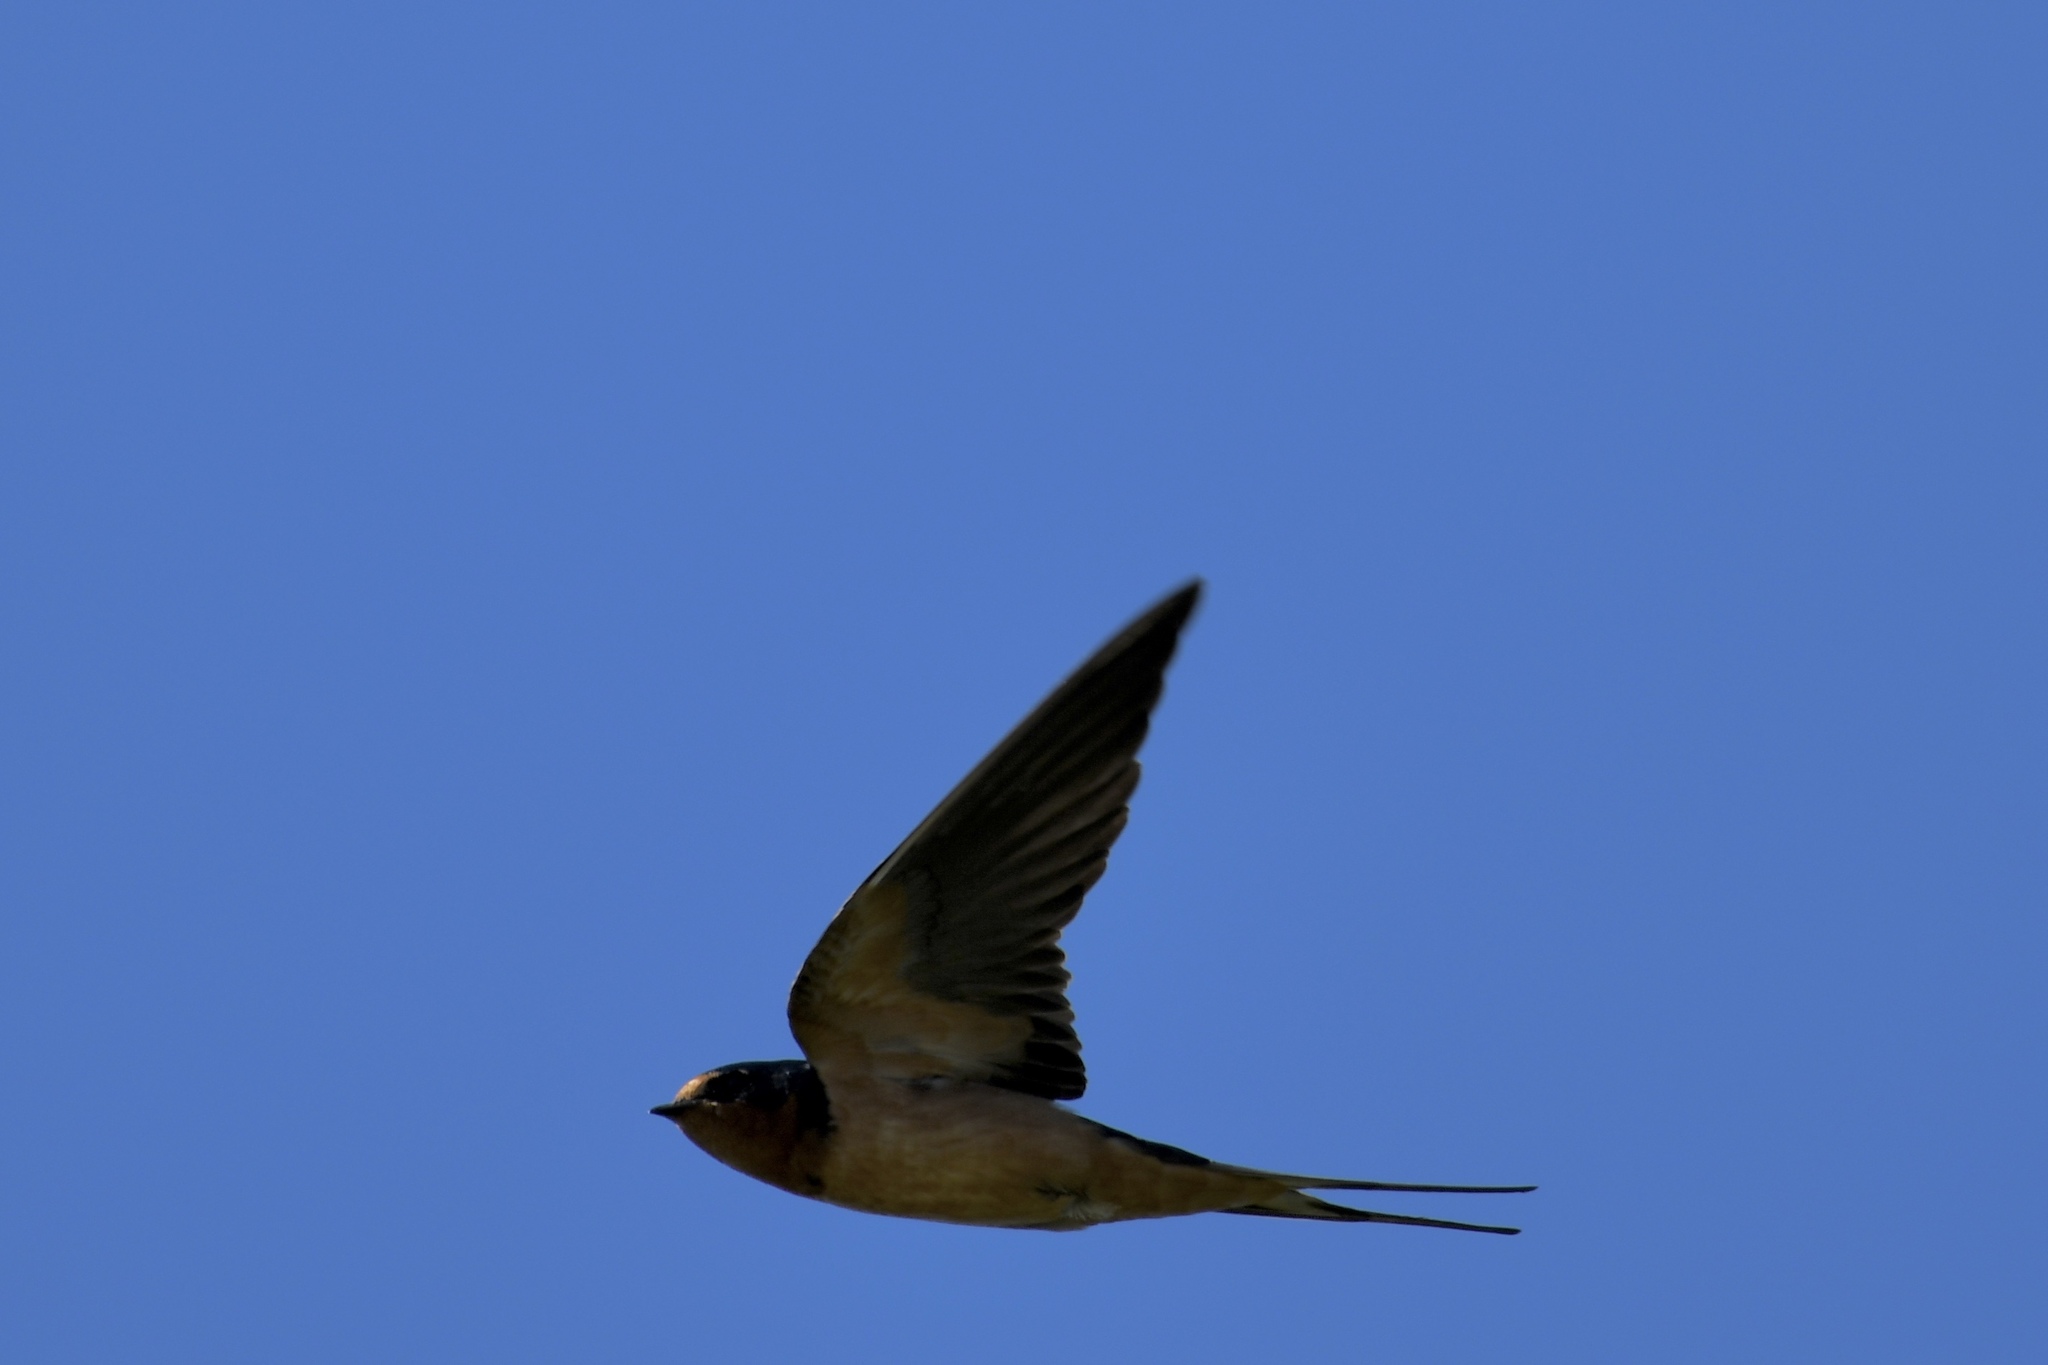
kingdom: Animalia
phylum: Chordata
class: Aves
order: Passeriformes
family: Hirundinidae
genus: Hirundo
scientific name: Hirundo rustica
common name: Barn swallow
